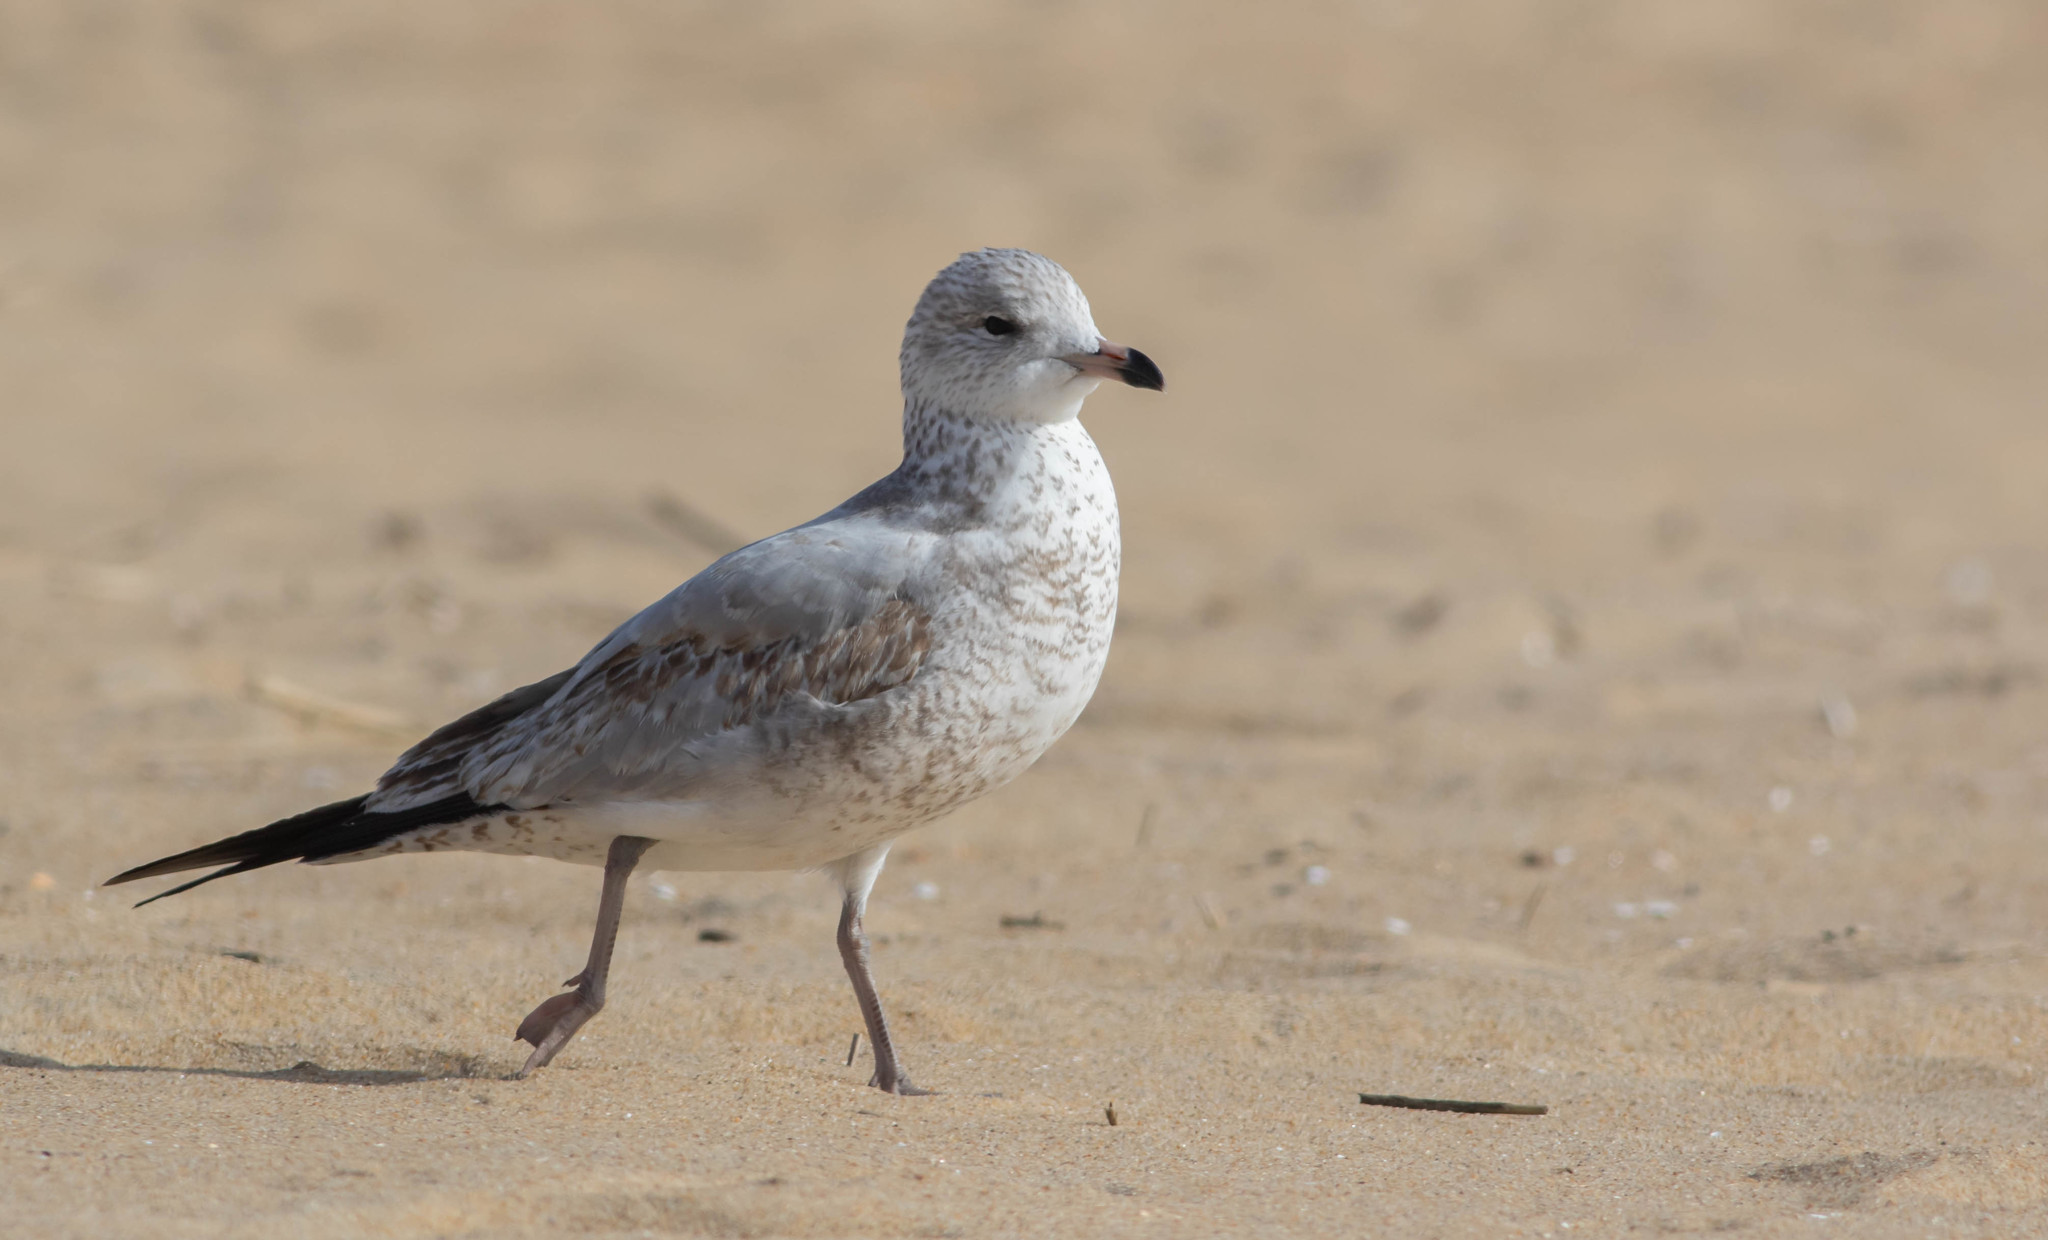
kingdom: Animalia
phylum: Chordata
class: Aves
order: Charadriiformes
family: Laridae
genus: Larus
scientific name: Larus delawarensis
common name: Ring-billed gull
